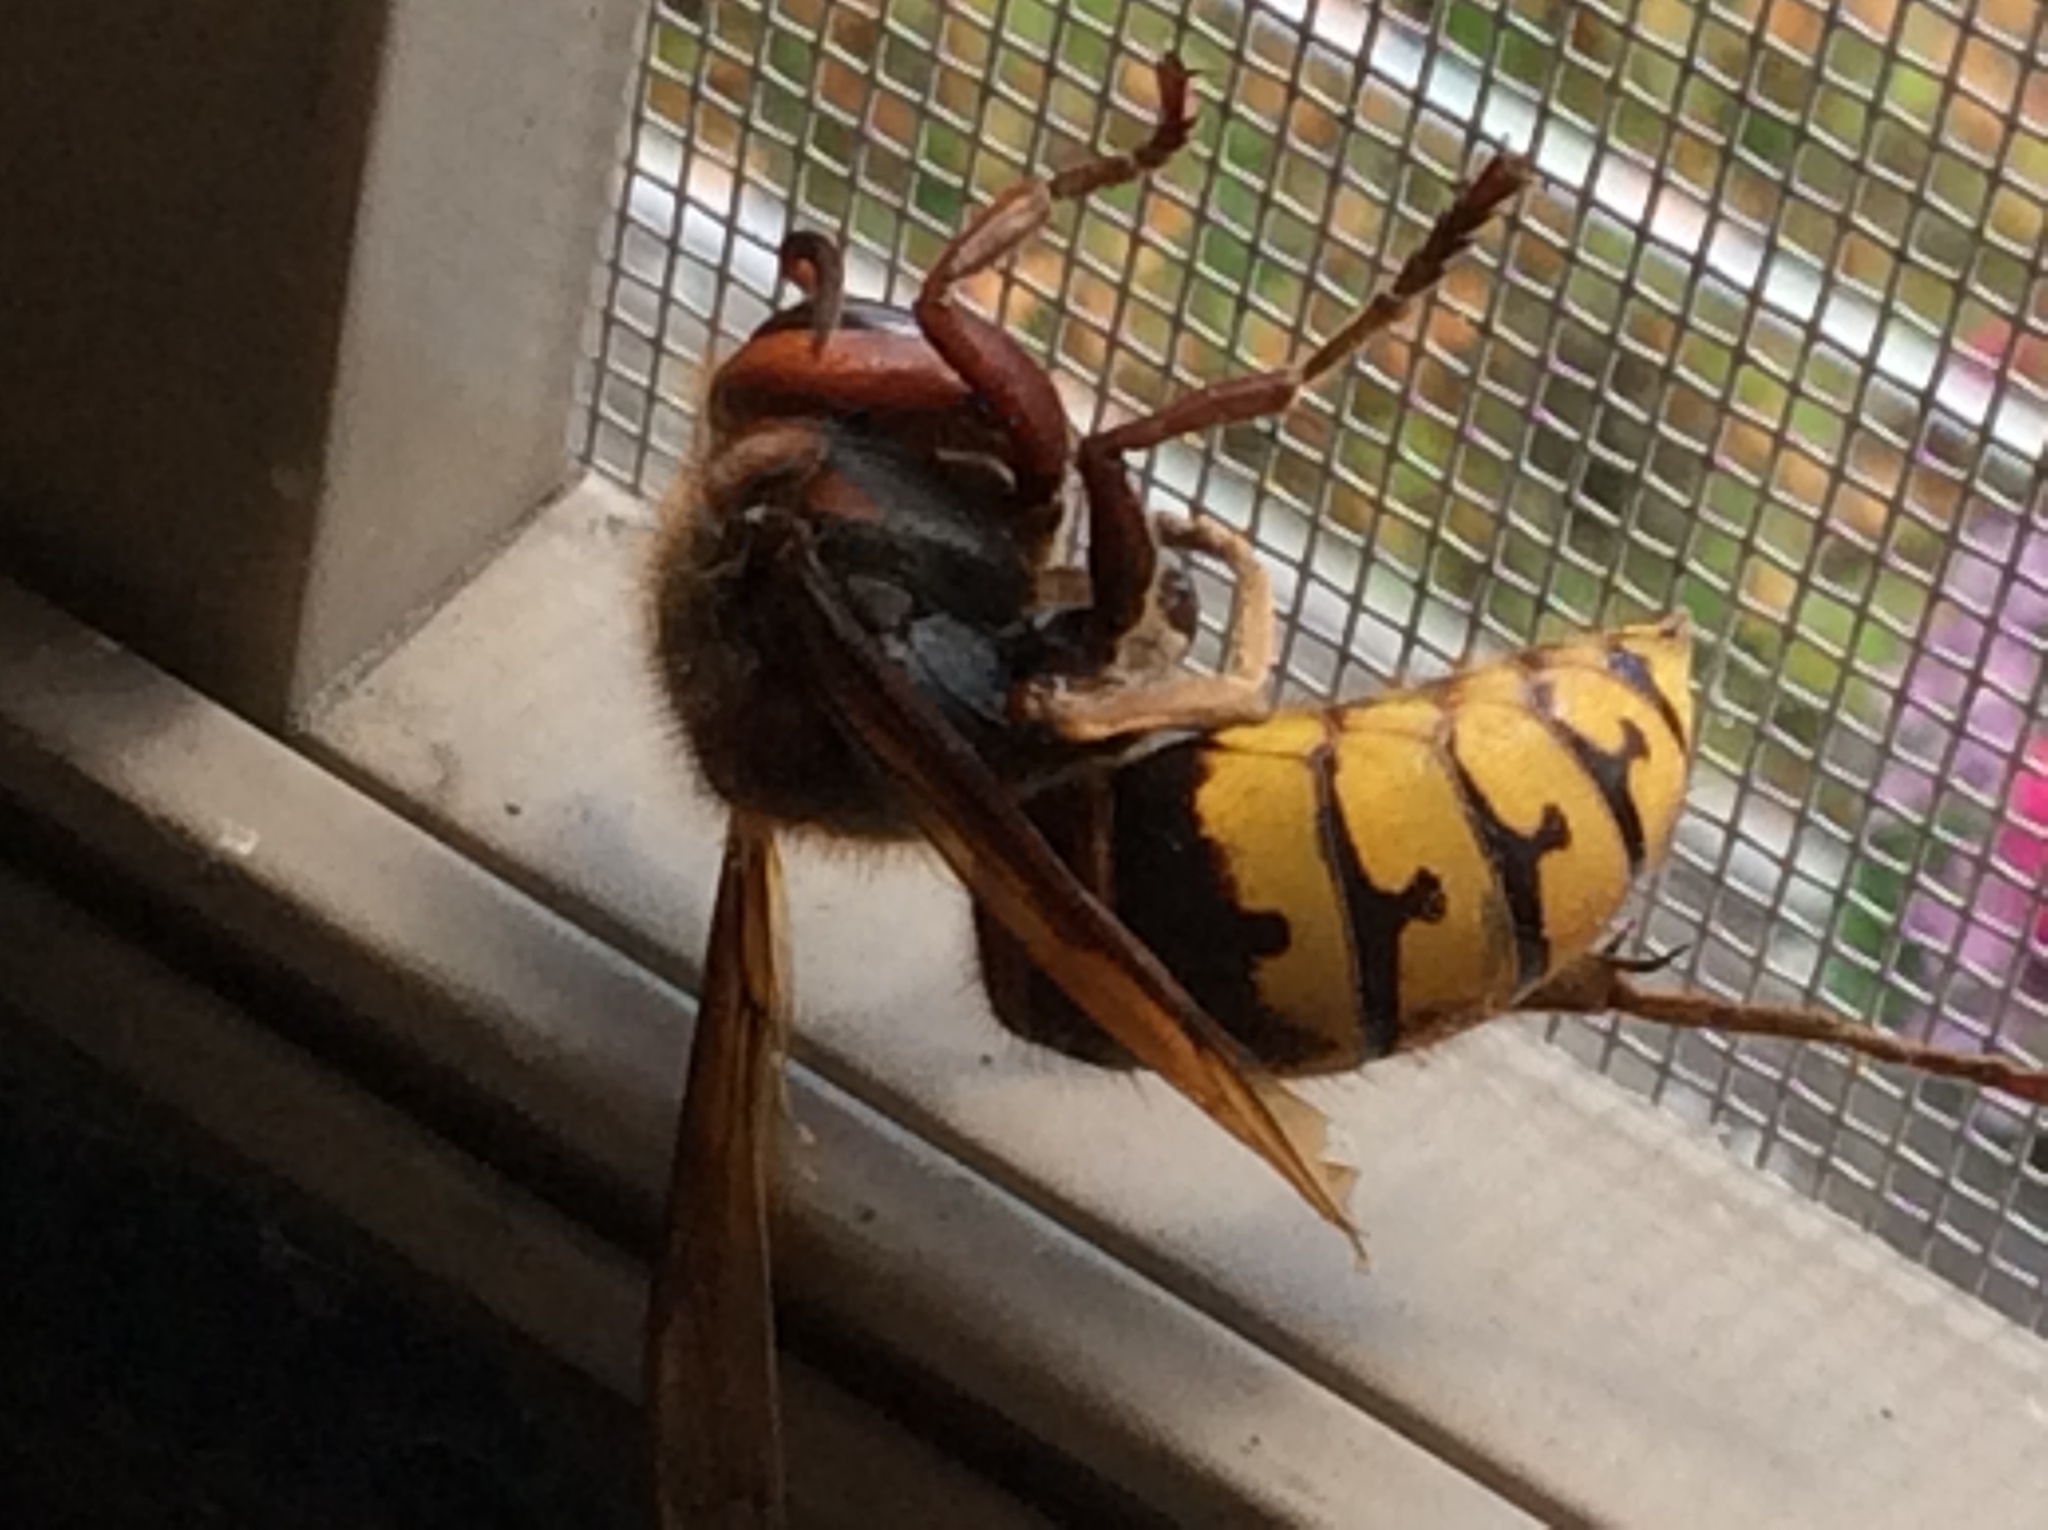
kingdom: Animalia
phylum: Arthropoda
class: Insecta
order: Hymenoptera
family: Vespidae
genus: Vespa
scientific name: Vespa crabro
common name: Hornet
